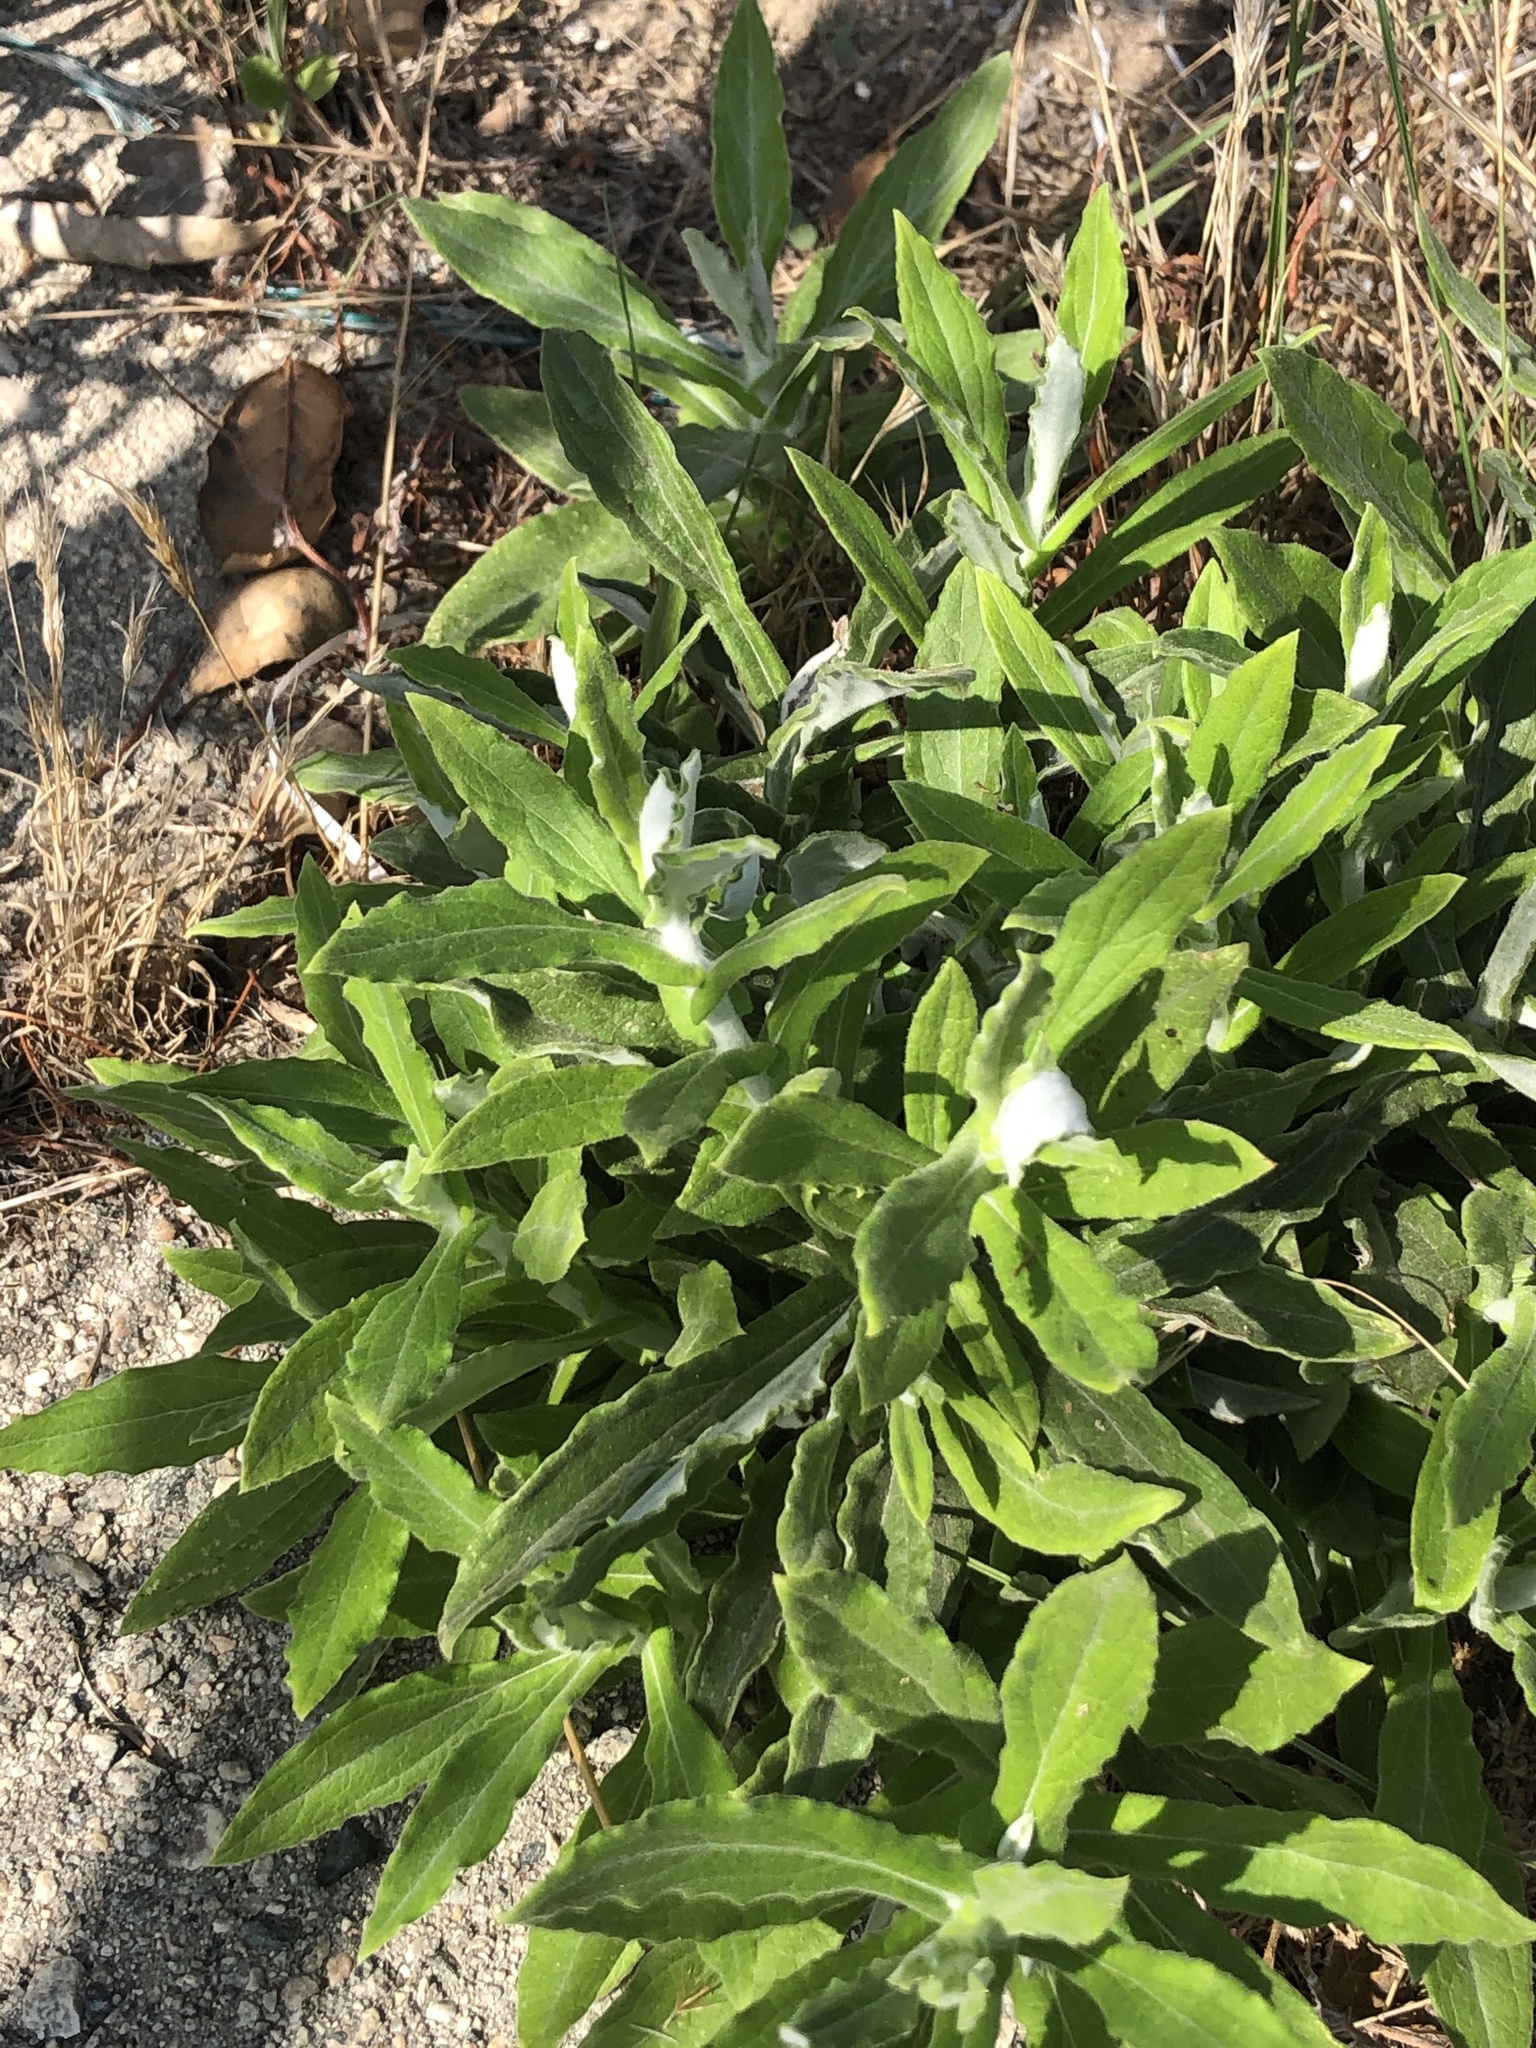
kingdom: Plantae
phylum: Tracheophyta
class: Magnoliopsida
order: Asterales
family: Asteraceae
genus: Pseudognaphalium
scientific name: Pseudognaphalium biolettii
